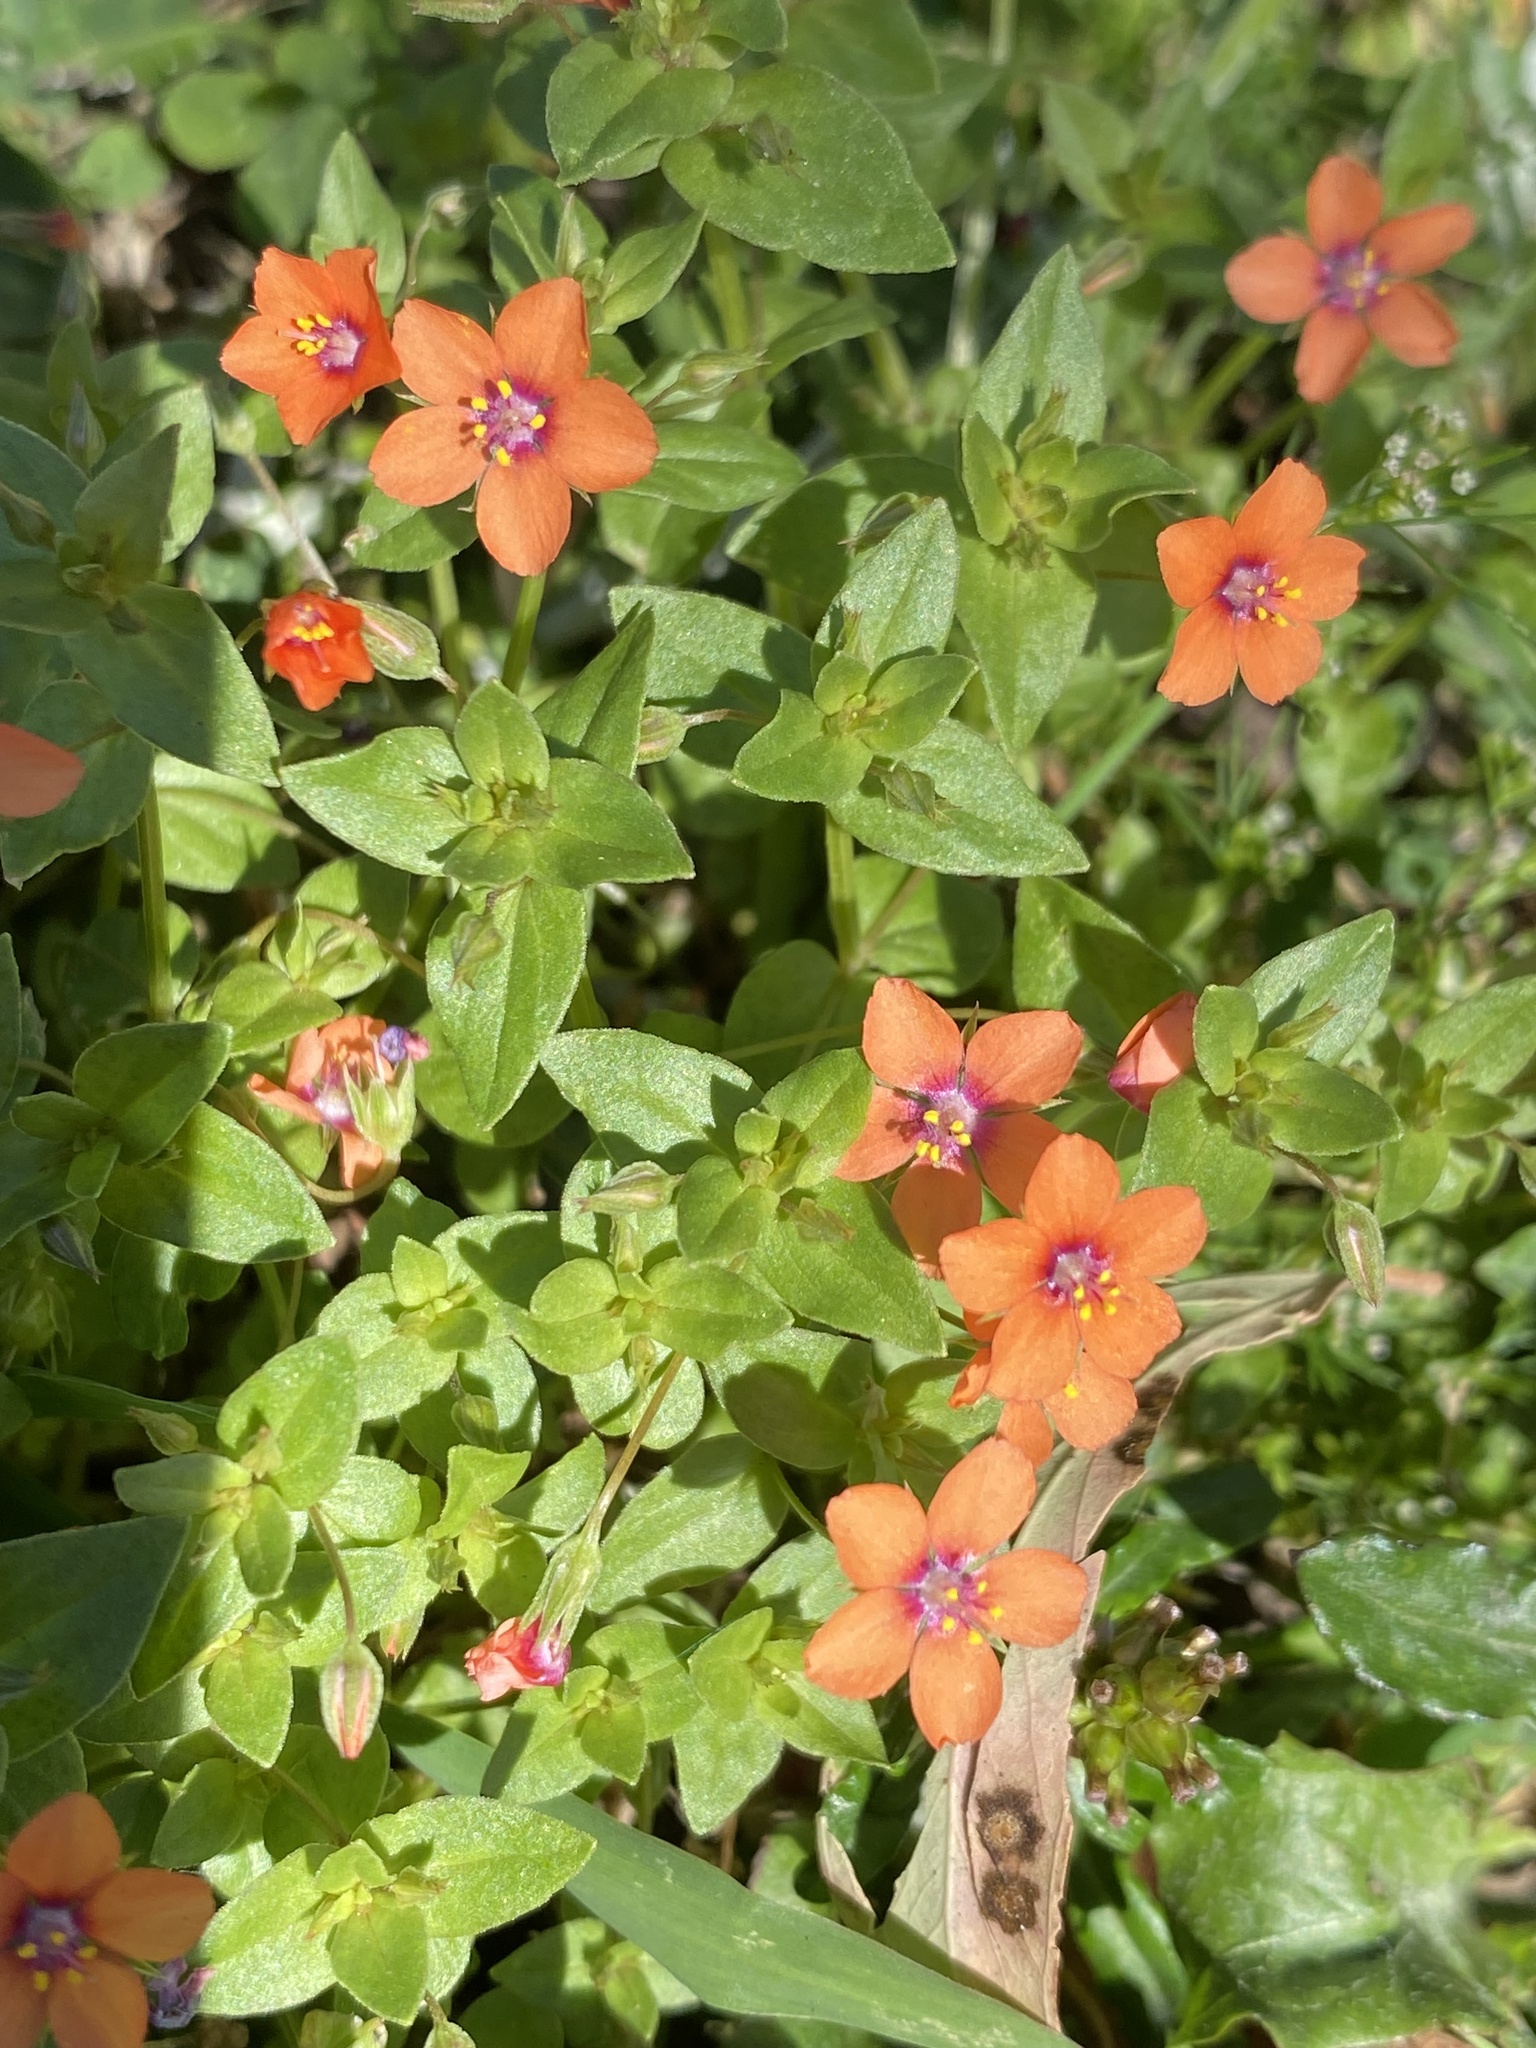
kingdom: Plantae
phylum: Tracheophyta
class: Magnoliopsida
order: Ericales
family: Primulaceae
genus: Lysimachia
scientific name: Lysimachia arvensis
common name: Scarlet pimpernel
